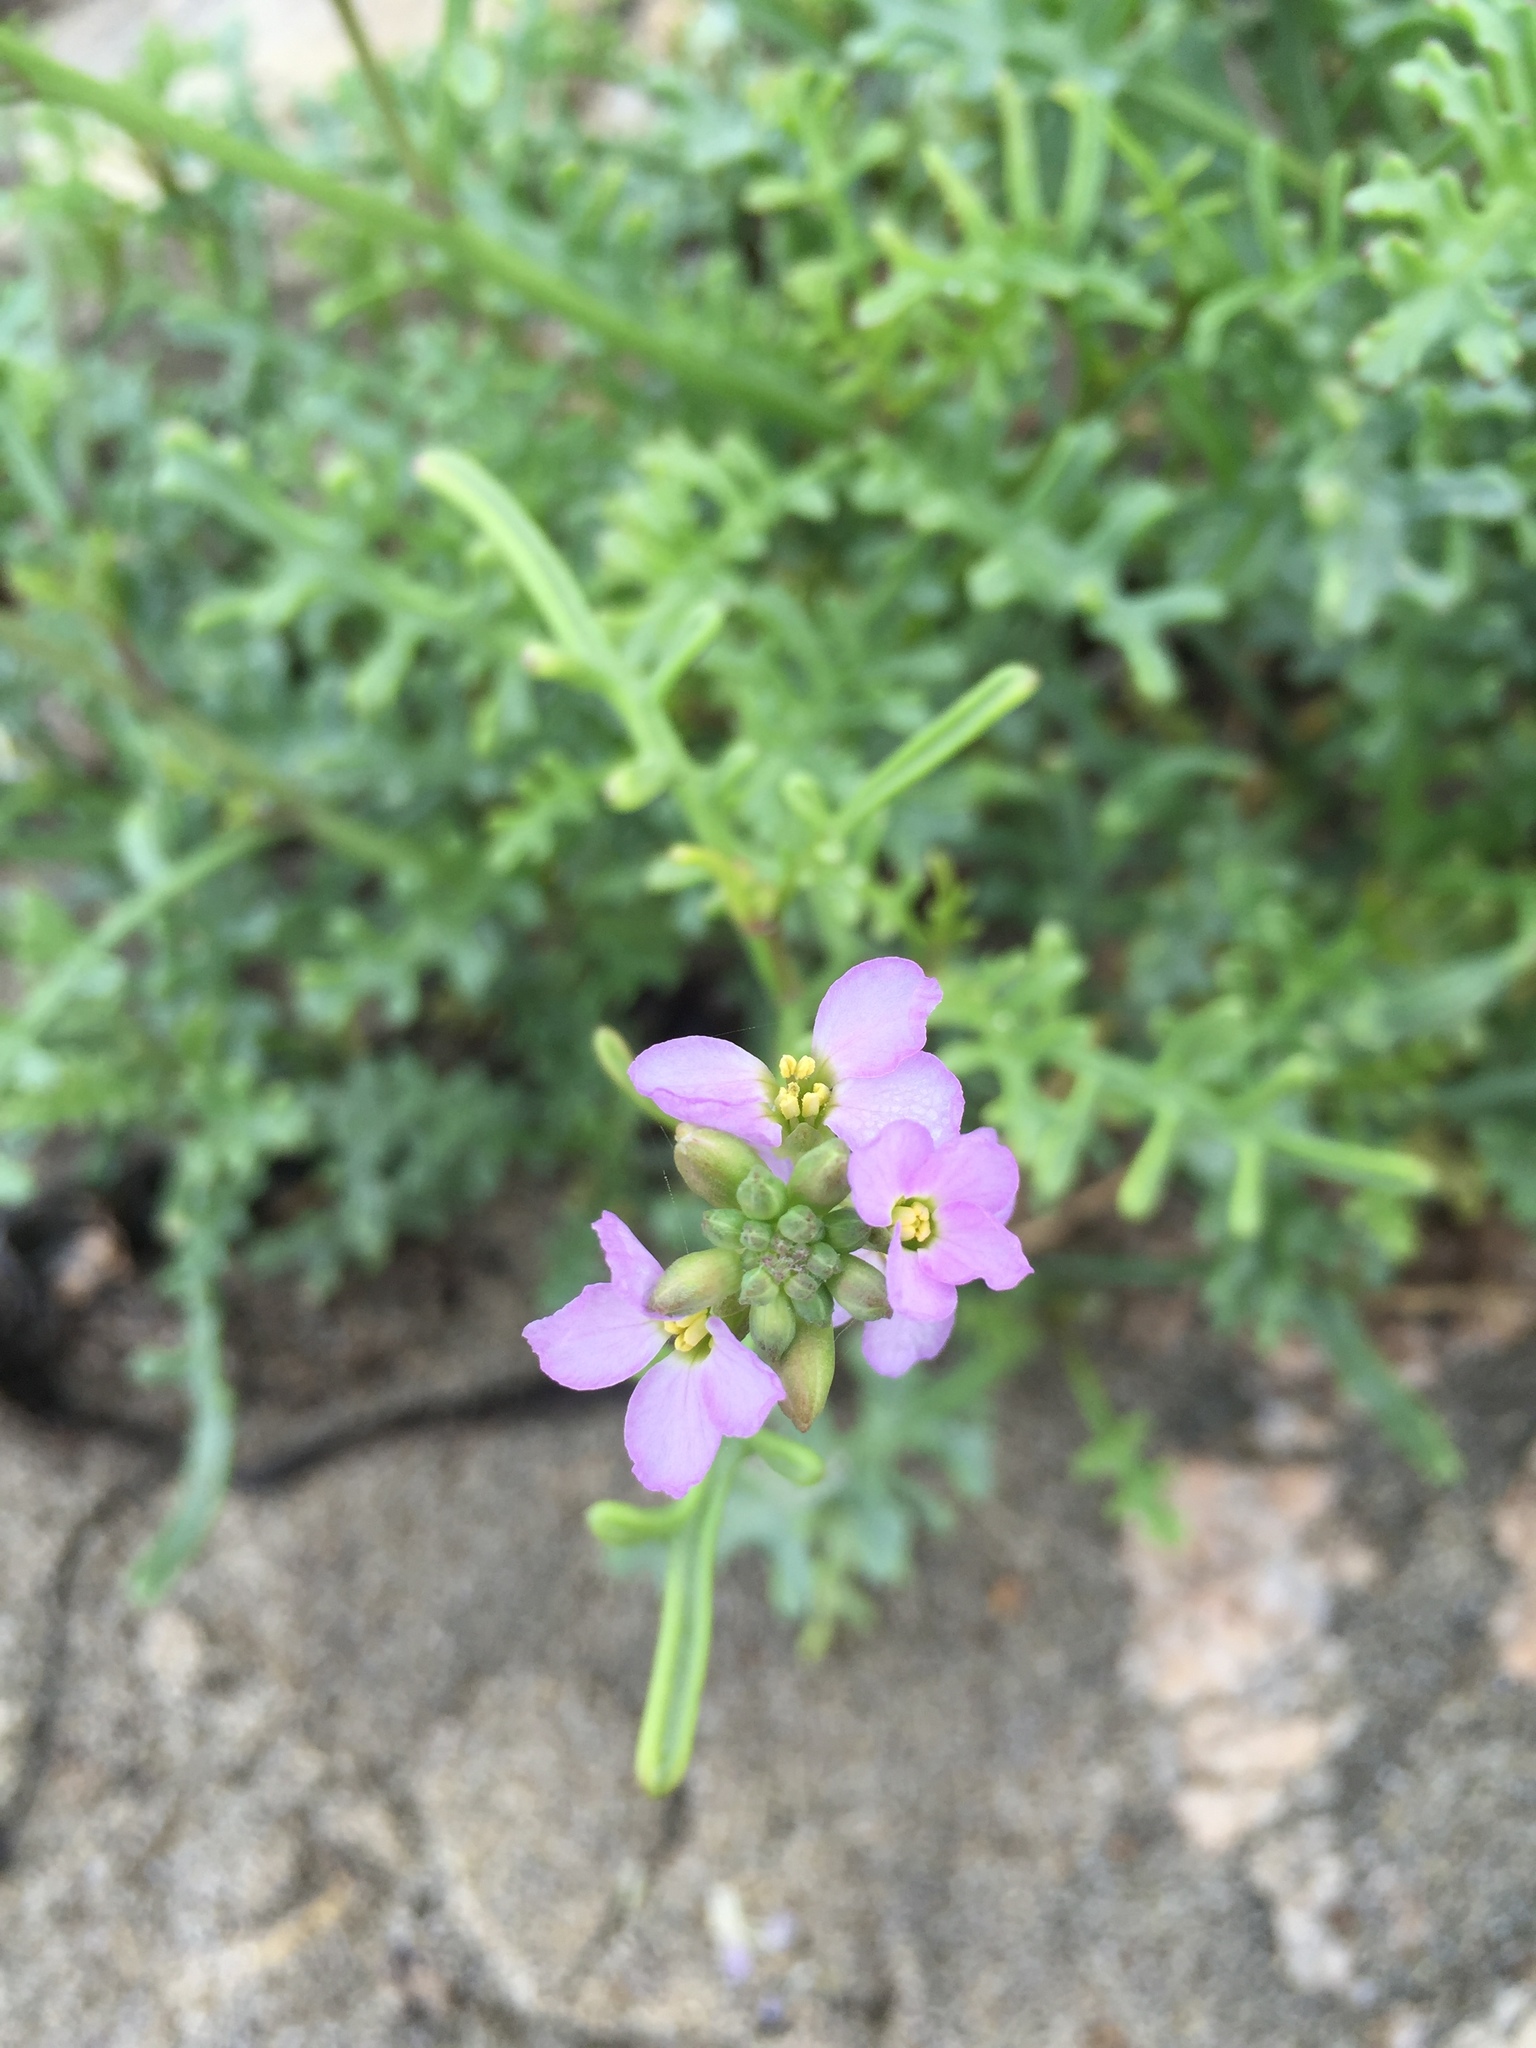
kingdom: Plantae
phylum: Tracheophyta
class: Magnoliopsida
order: Brassicales
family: Brassicaceae
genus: Cakile
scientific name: Cakile maritima
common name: Sea rocket
